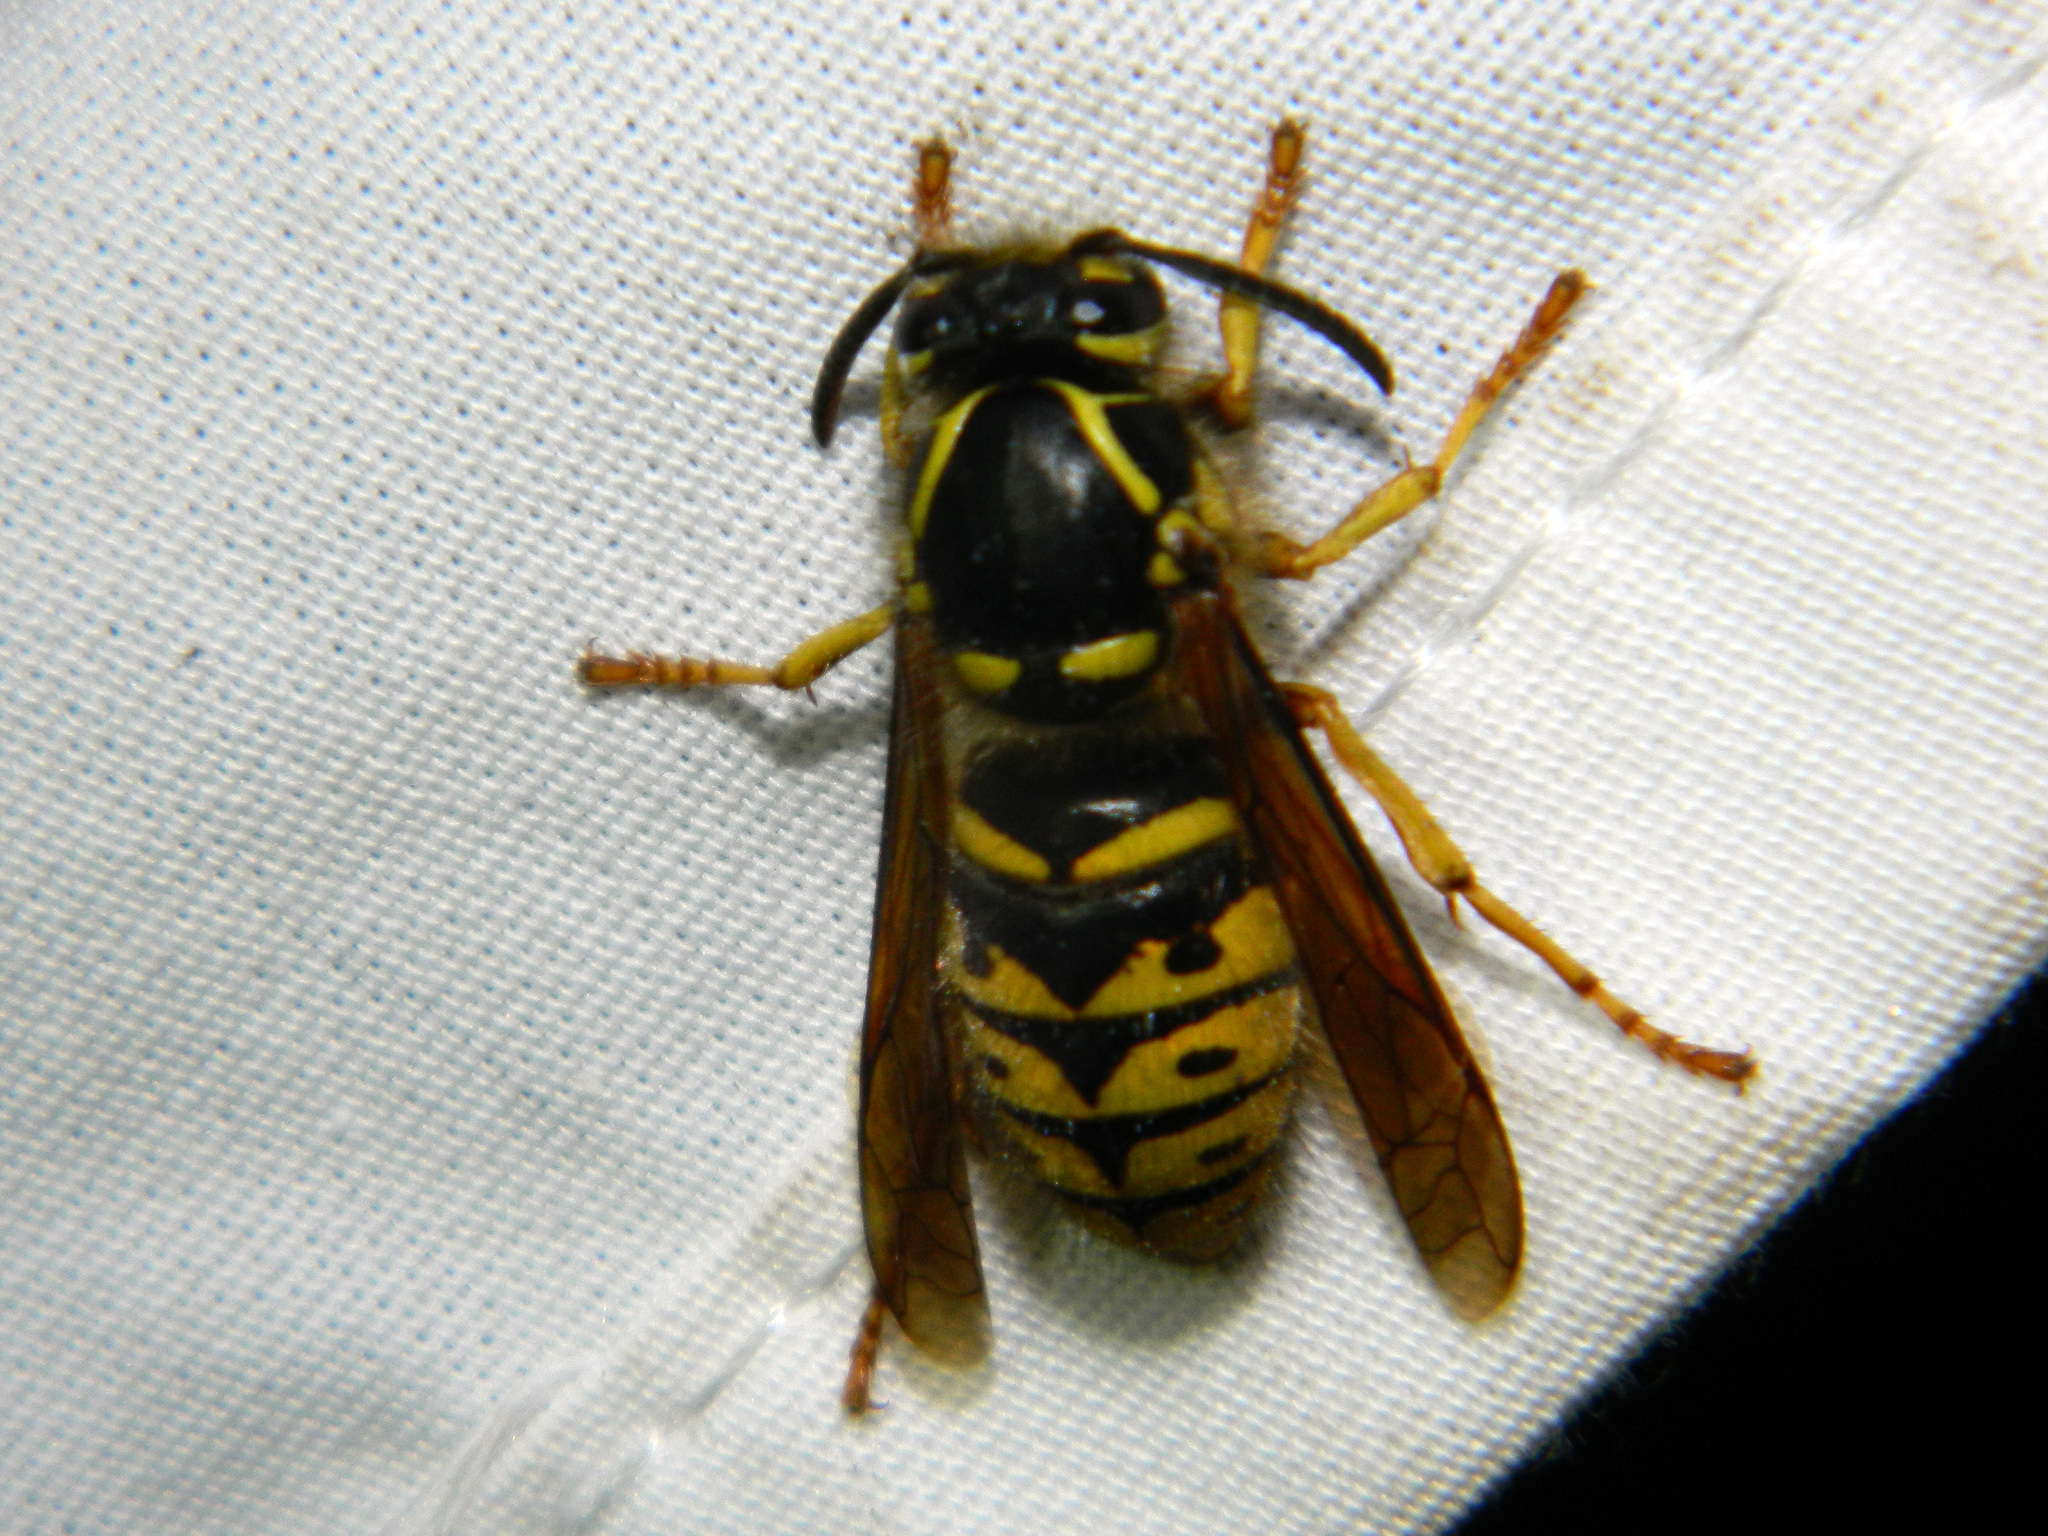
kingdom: Animalia
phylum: Arthropoda
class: Insecta
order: Hymenoptera
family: Vespidae
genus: Dolichovespula
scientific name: Dolichovespula arenaria
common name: Aerial yellowjacket
